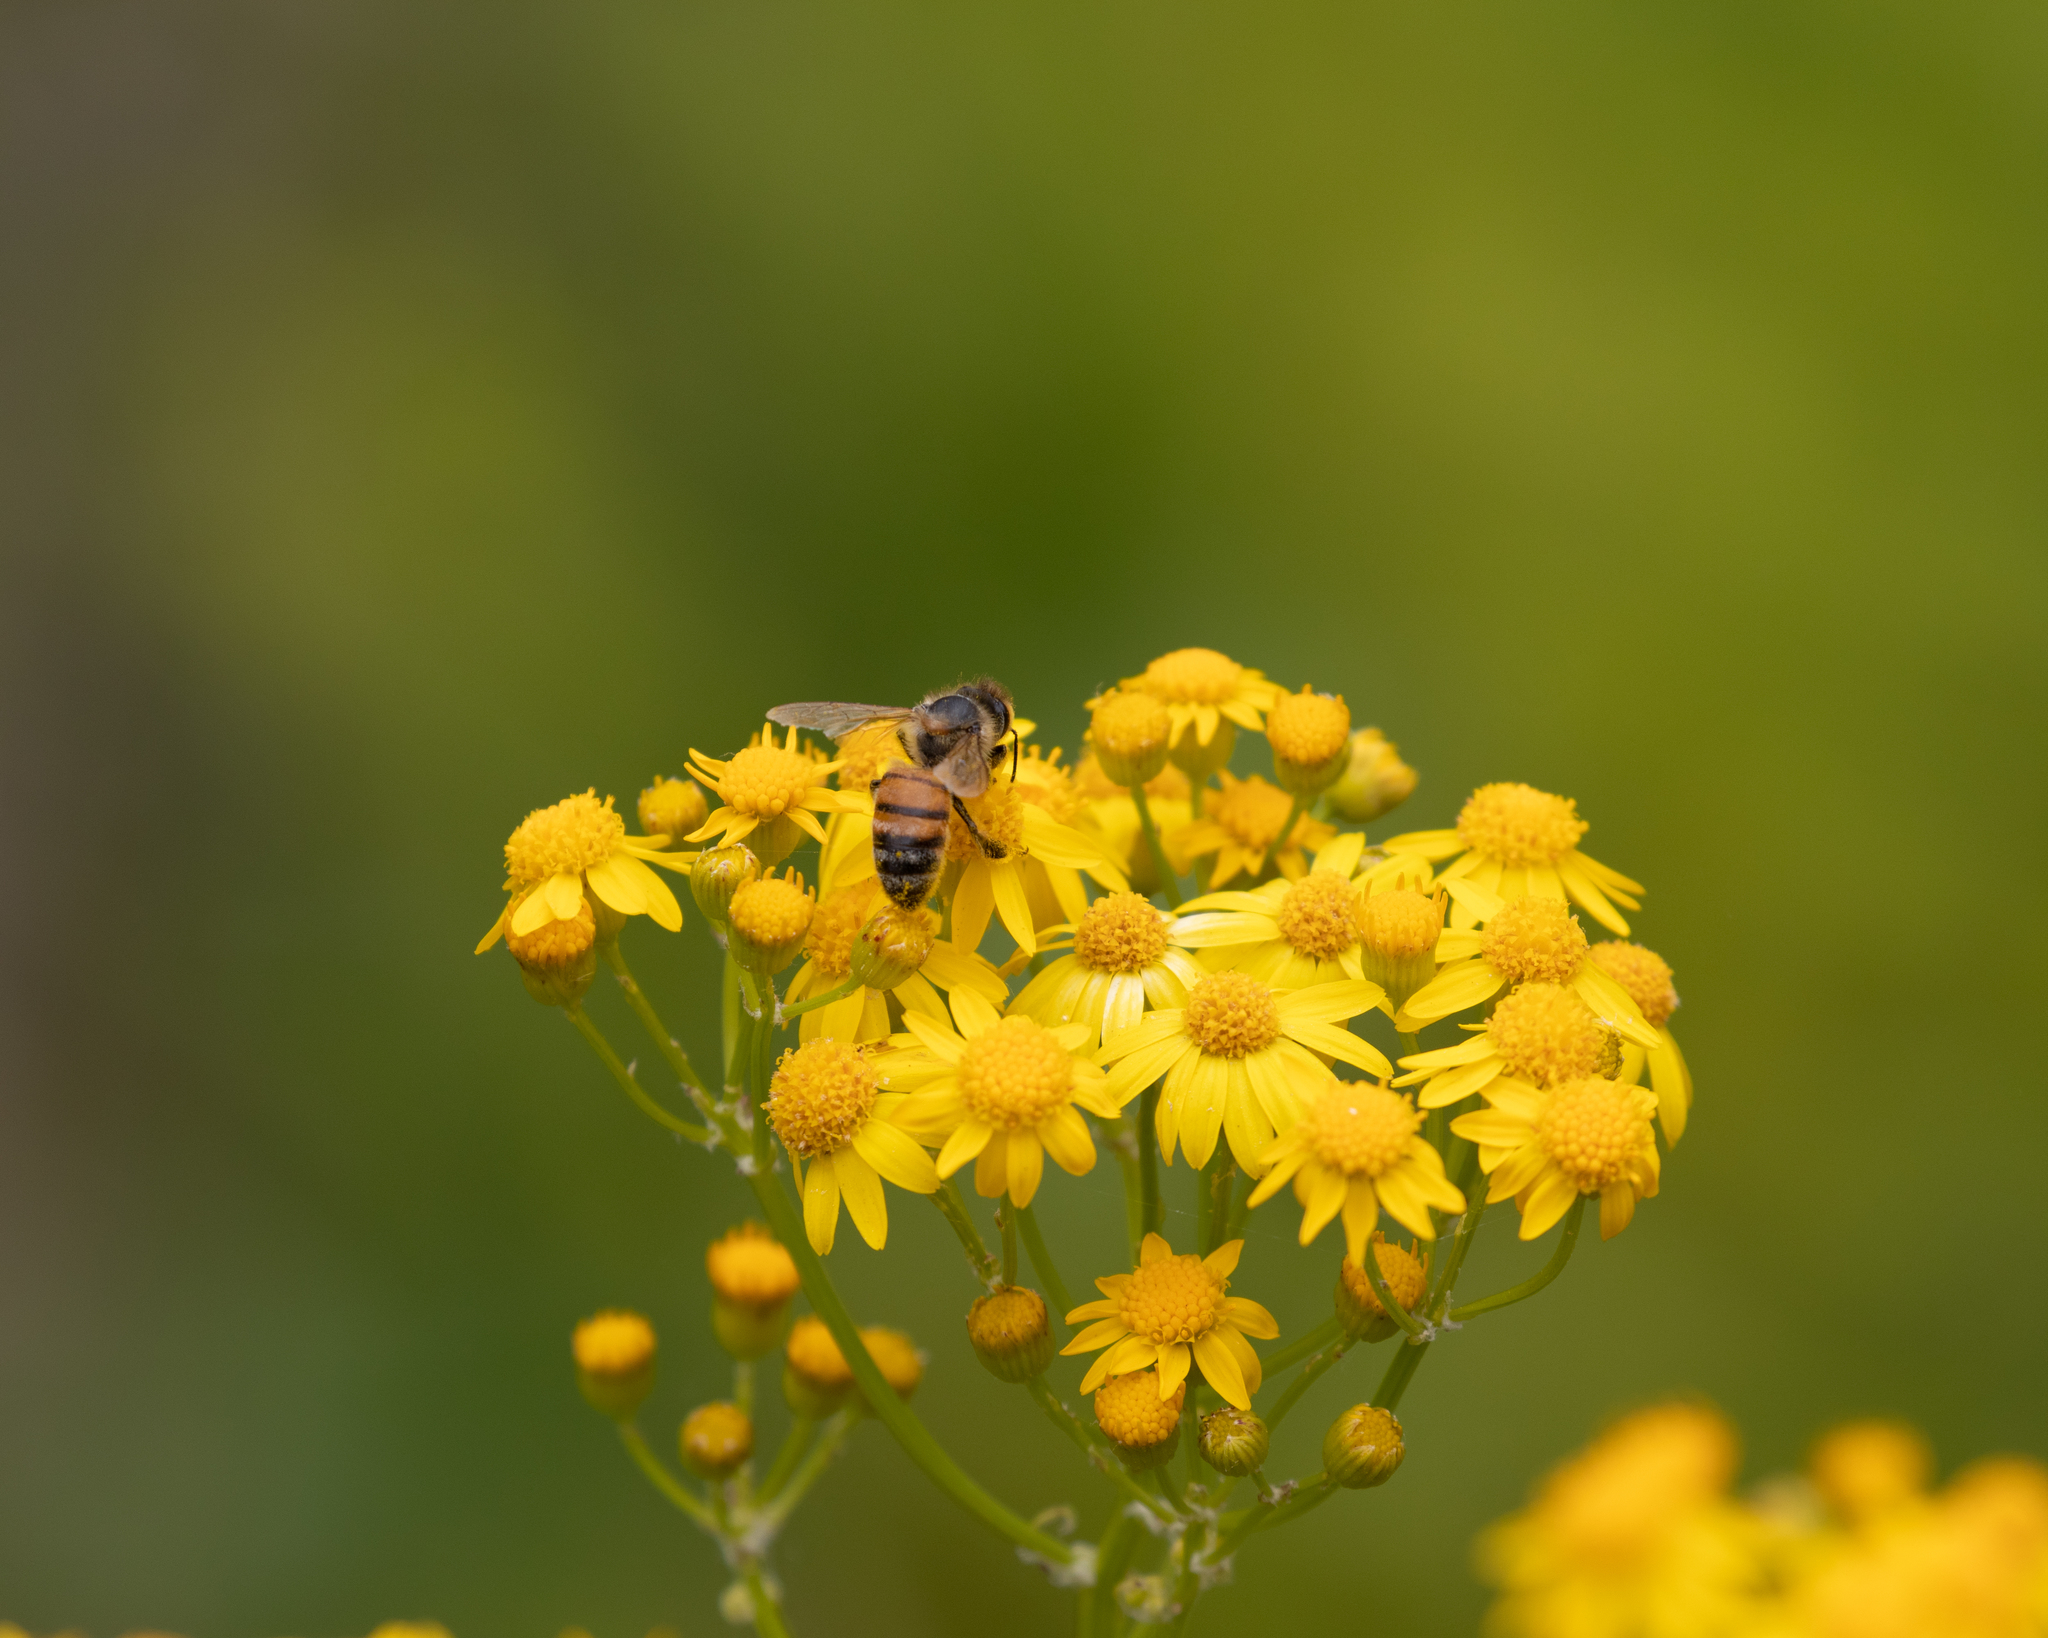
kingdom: Animalia
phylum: Arthropoda
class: Insecta
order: Hymenoptera
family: Apidae
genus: Apis
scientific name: Apis mellifera
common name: Honey bee
